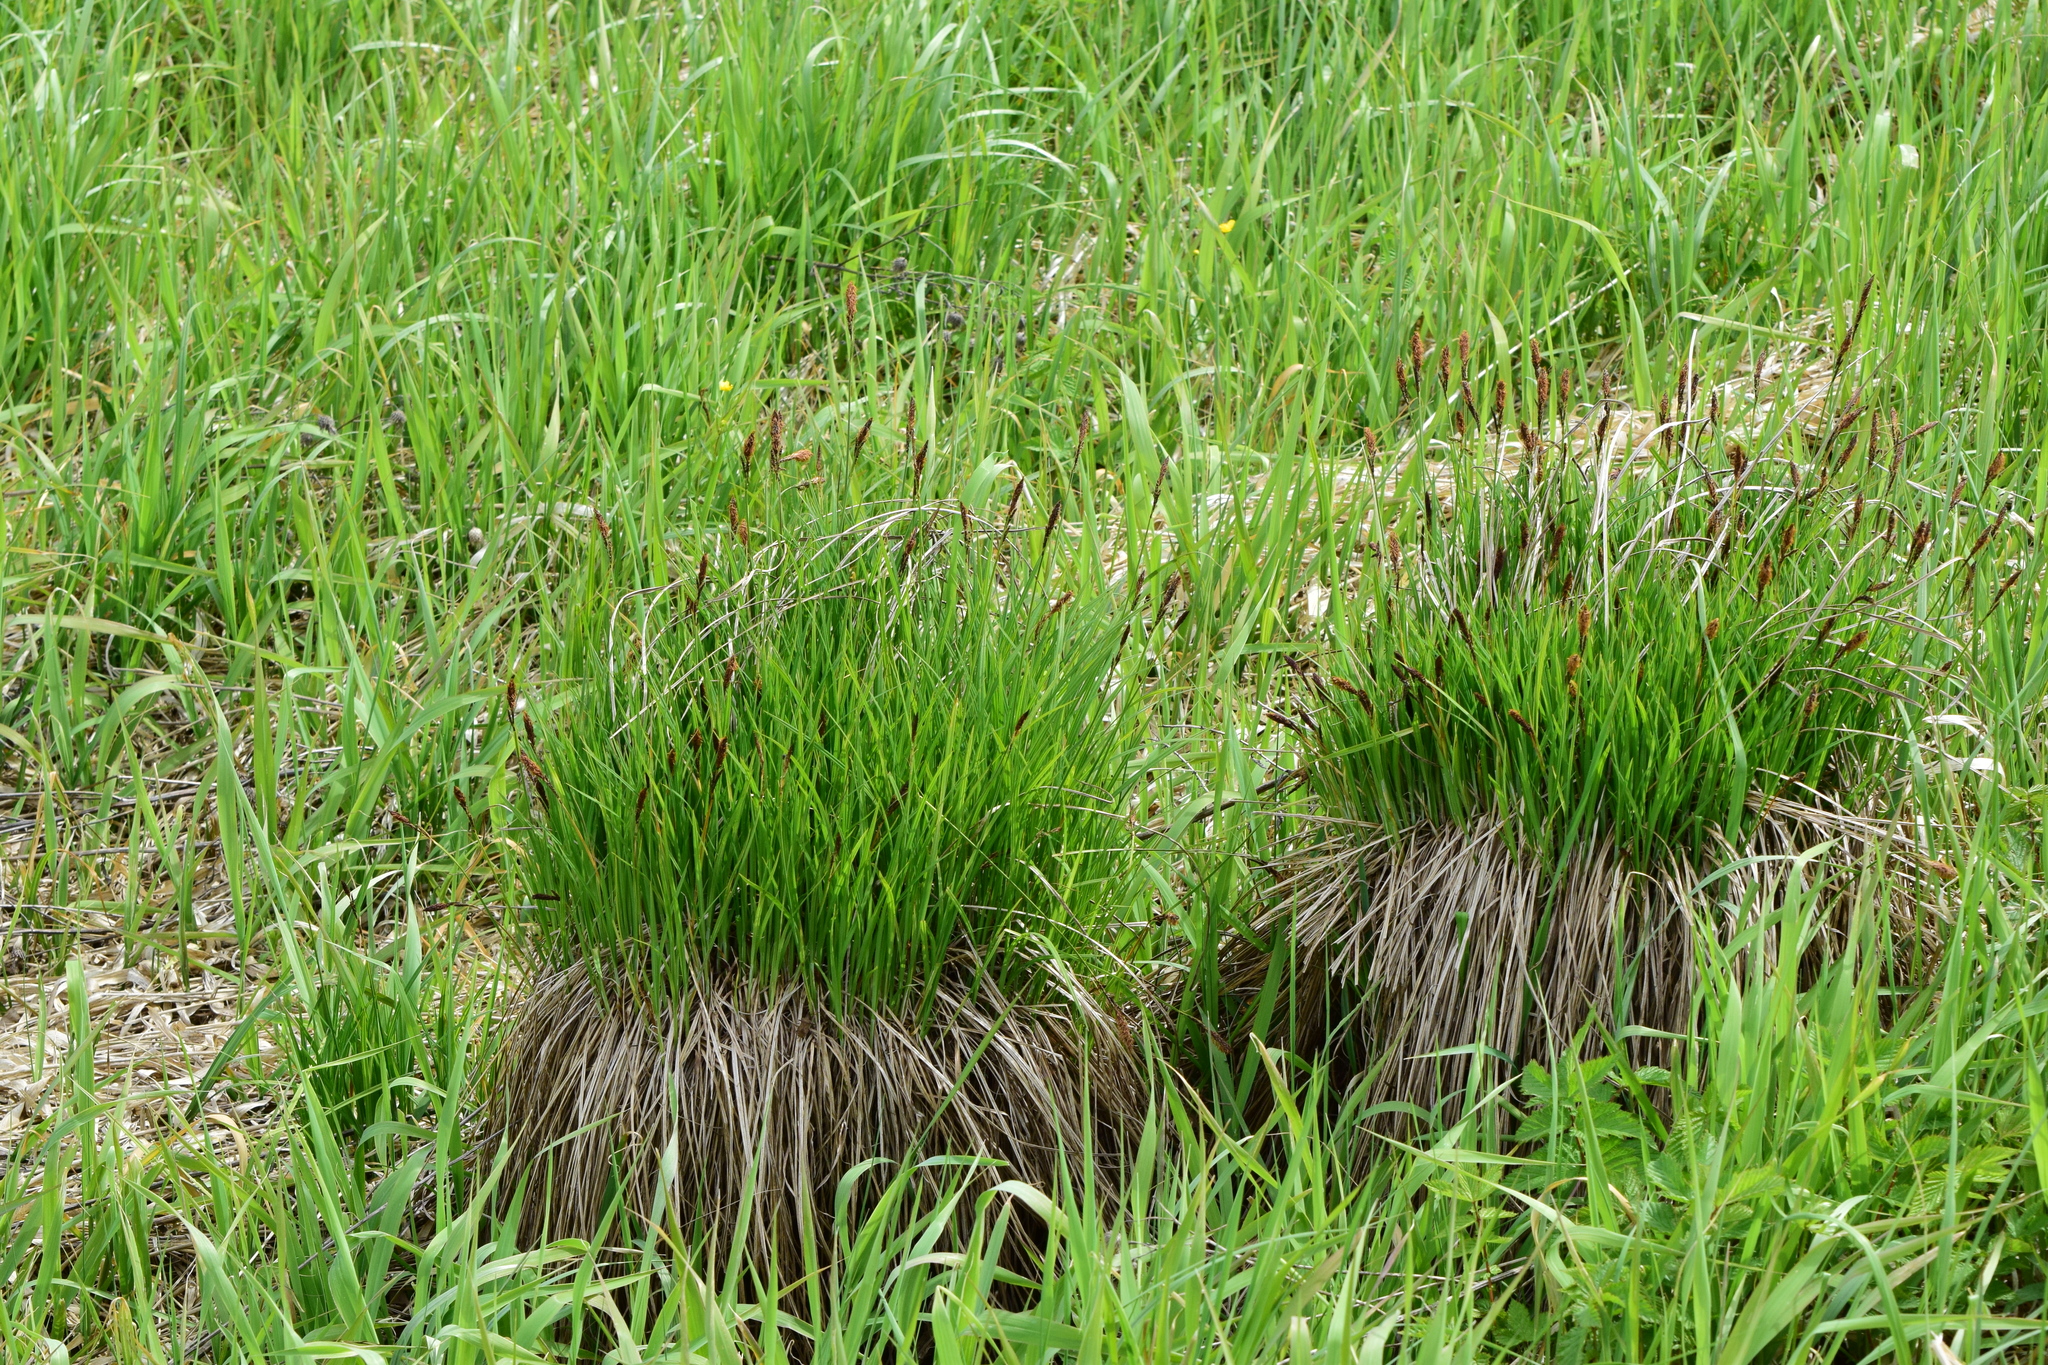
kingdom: Plantae
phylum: Tracheophyta
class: Liliopsida
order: Poales
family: Cyperaceae
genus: Carex
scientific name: Carex cespitosa
